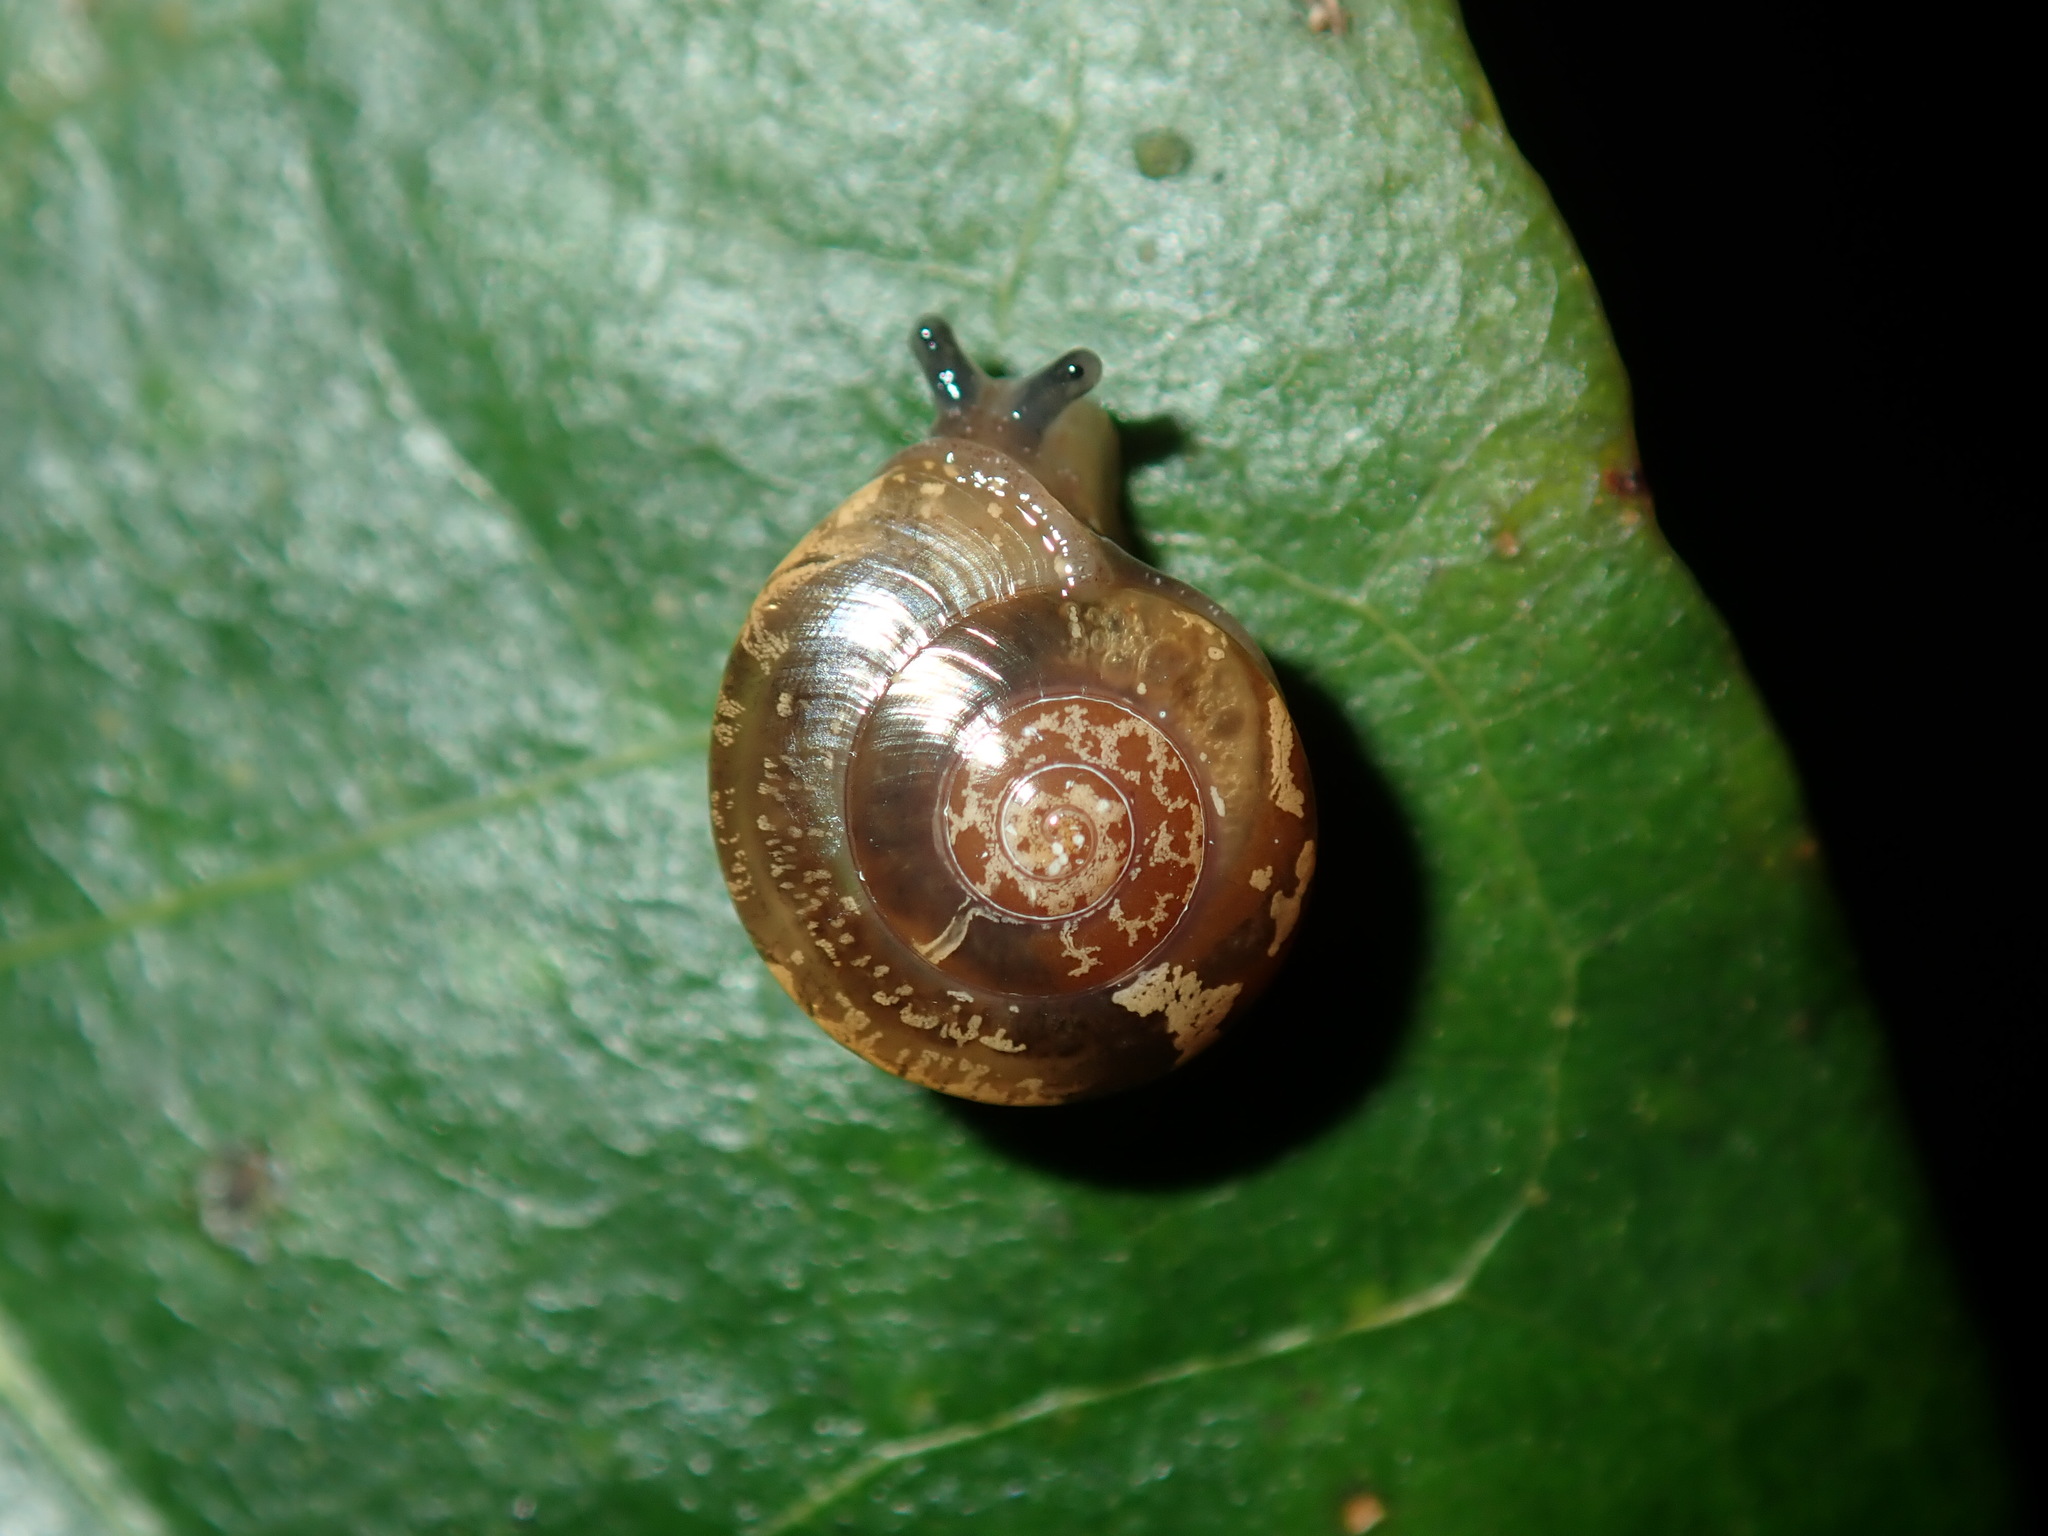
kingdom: Animalia
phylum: Mollusca
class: Gastropoda
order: Stylommatophora
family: Helicarionidae
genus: Nitor
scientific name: Nitor sheai
